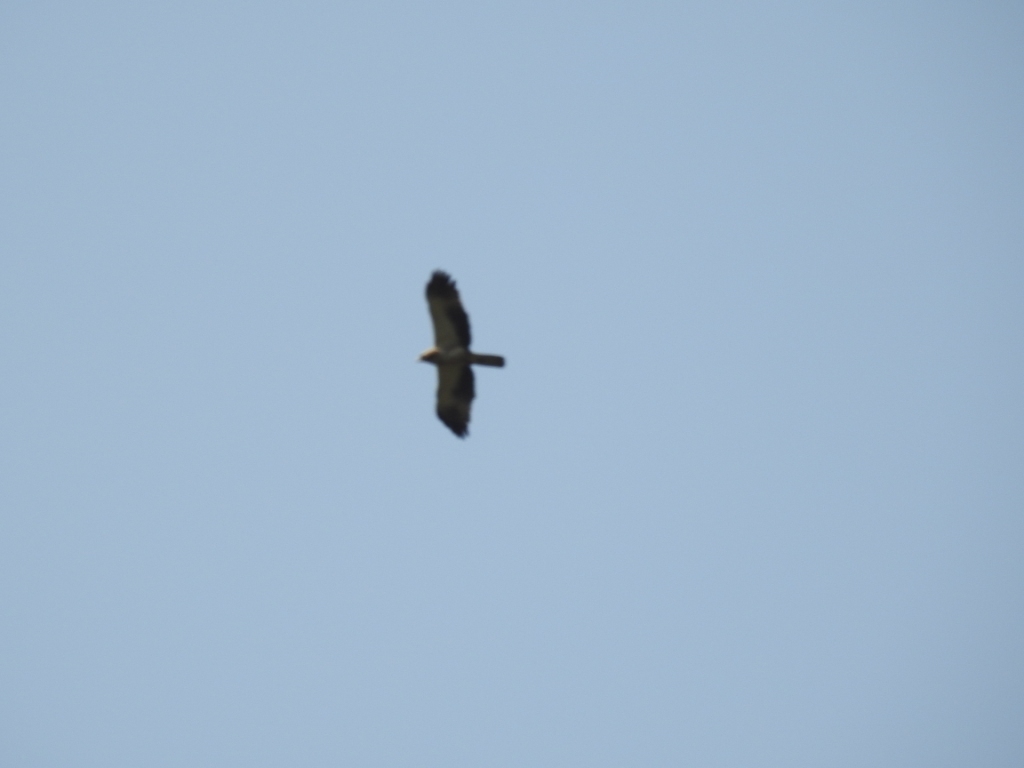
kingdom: Animalia
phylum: Chordata
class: Aves
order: Accipitriformes
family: Accipitridae
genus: Hieraaetus
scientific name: Hieraaetus pennatus
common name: Booted eagle
